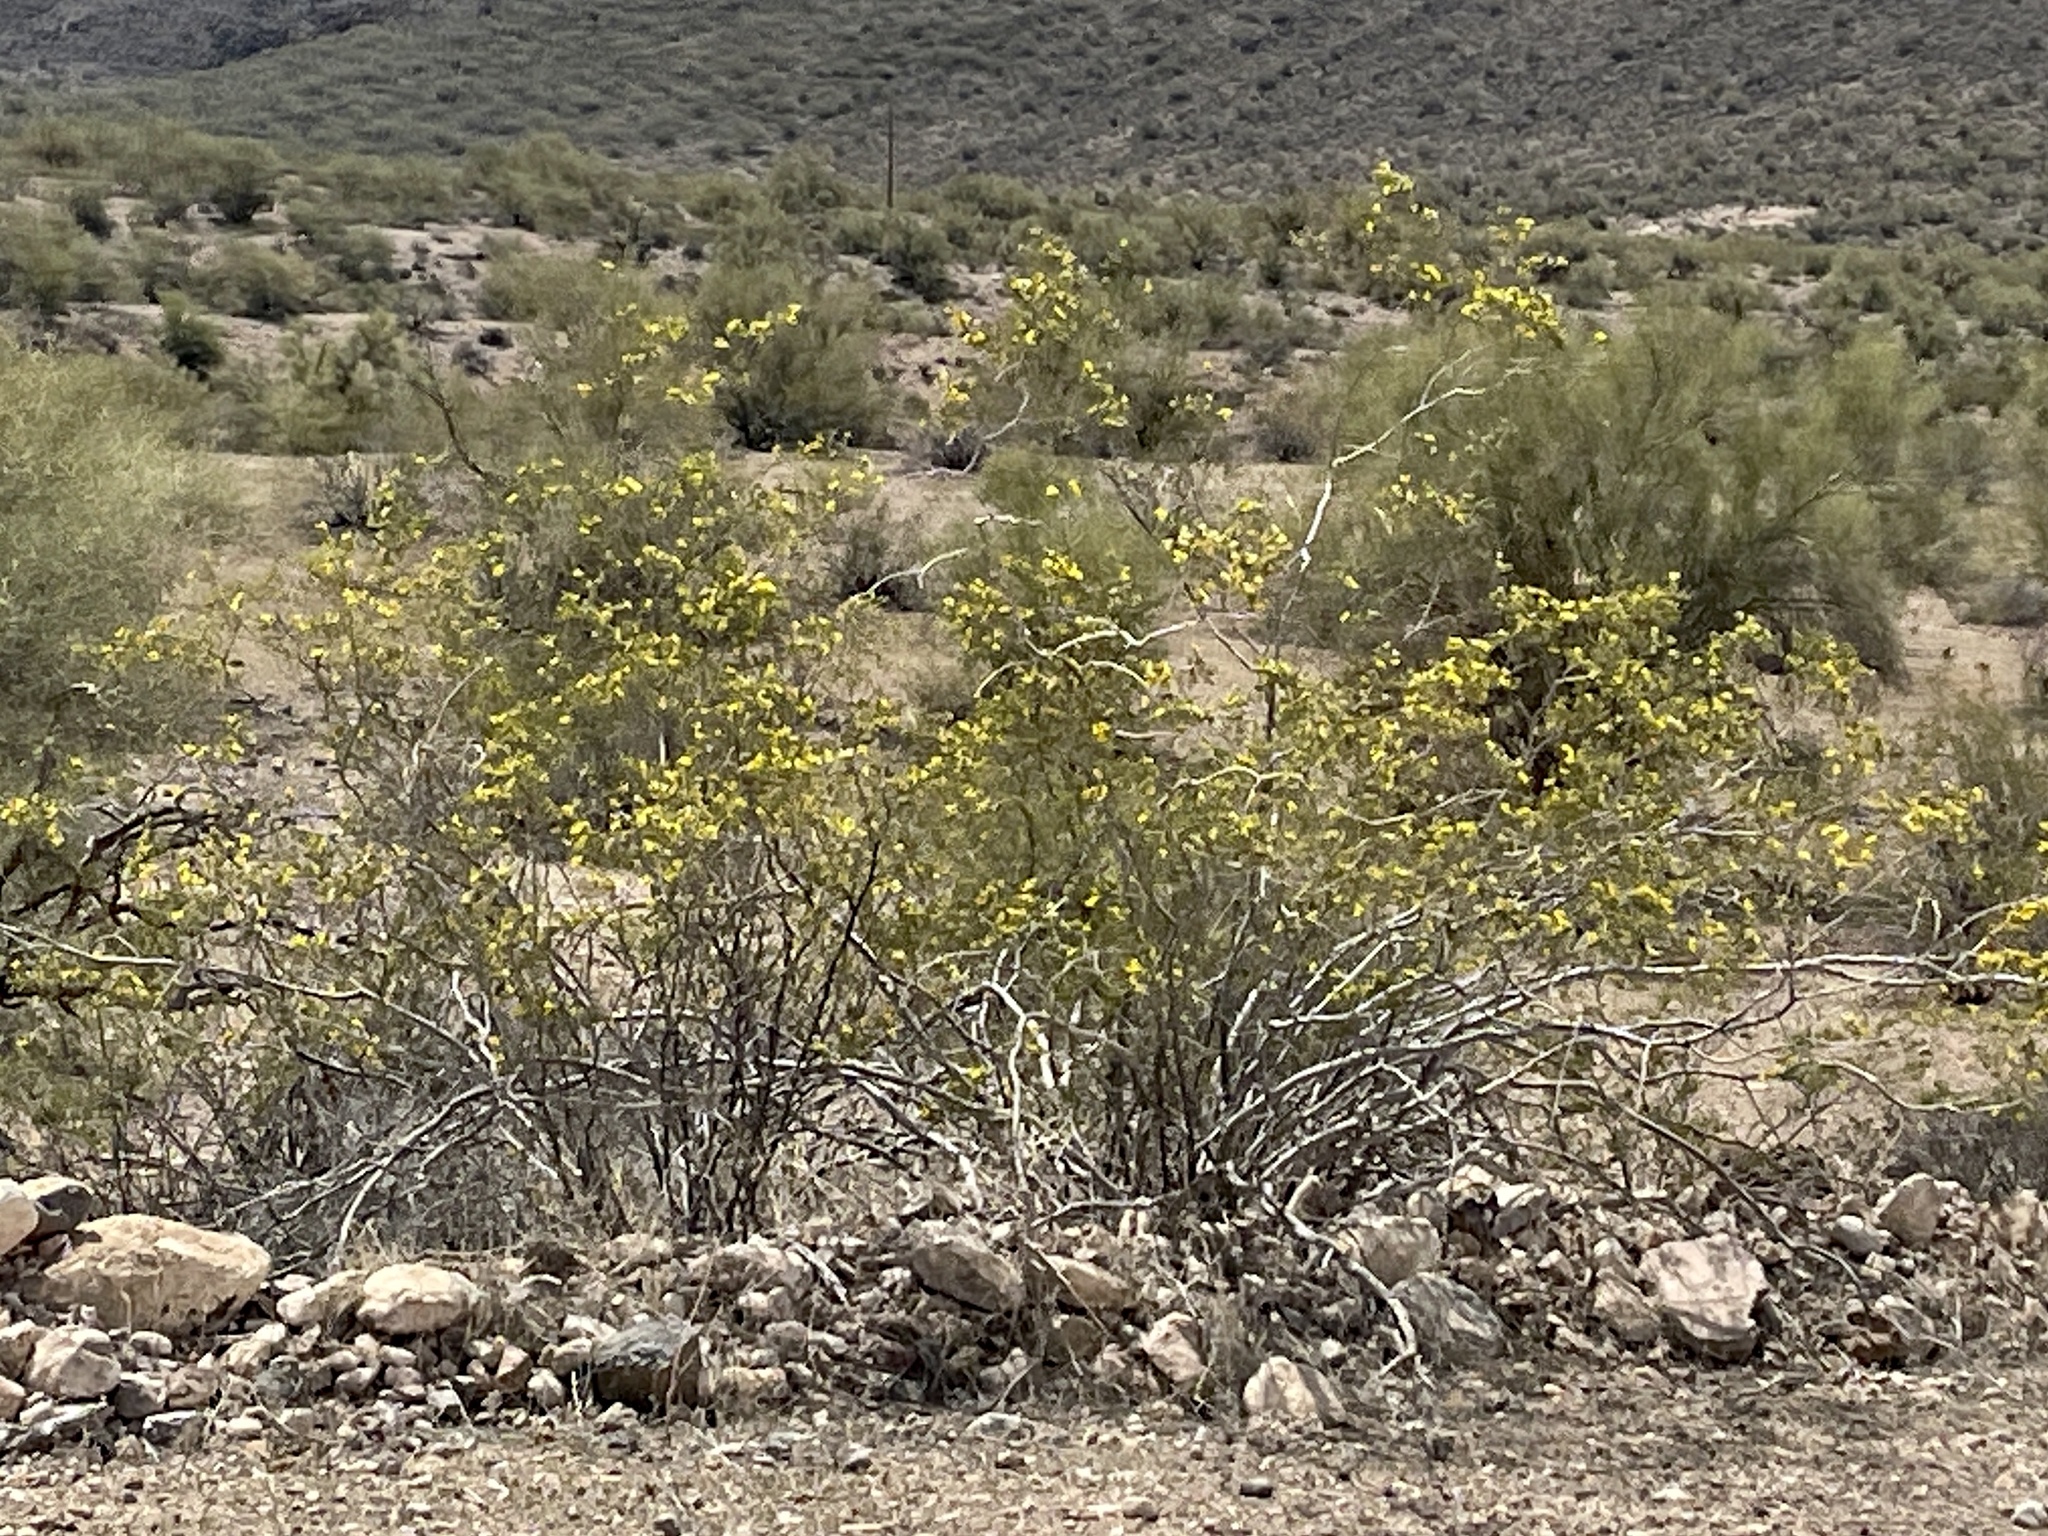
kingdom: Plantae
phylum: Tracheophyta
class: Magnoliopsida
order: Zygophyllales
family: Zygophyllaceae
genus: Larrea
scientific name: Larrea tridentata
